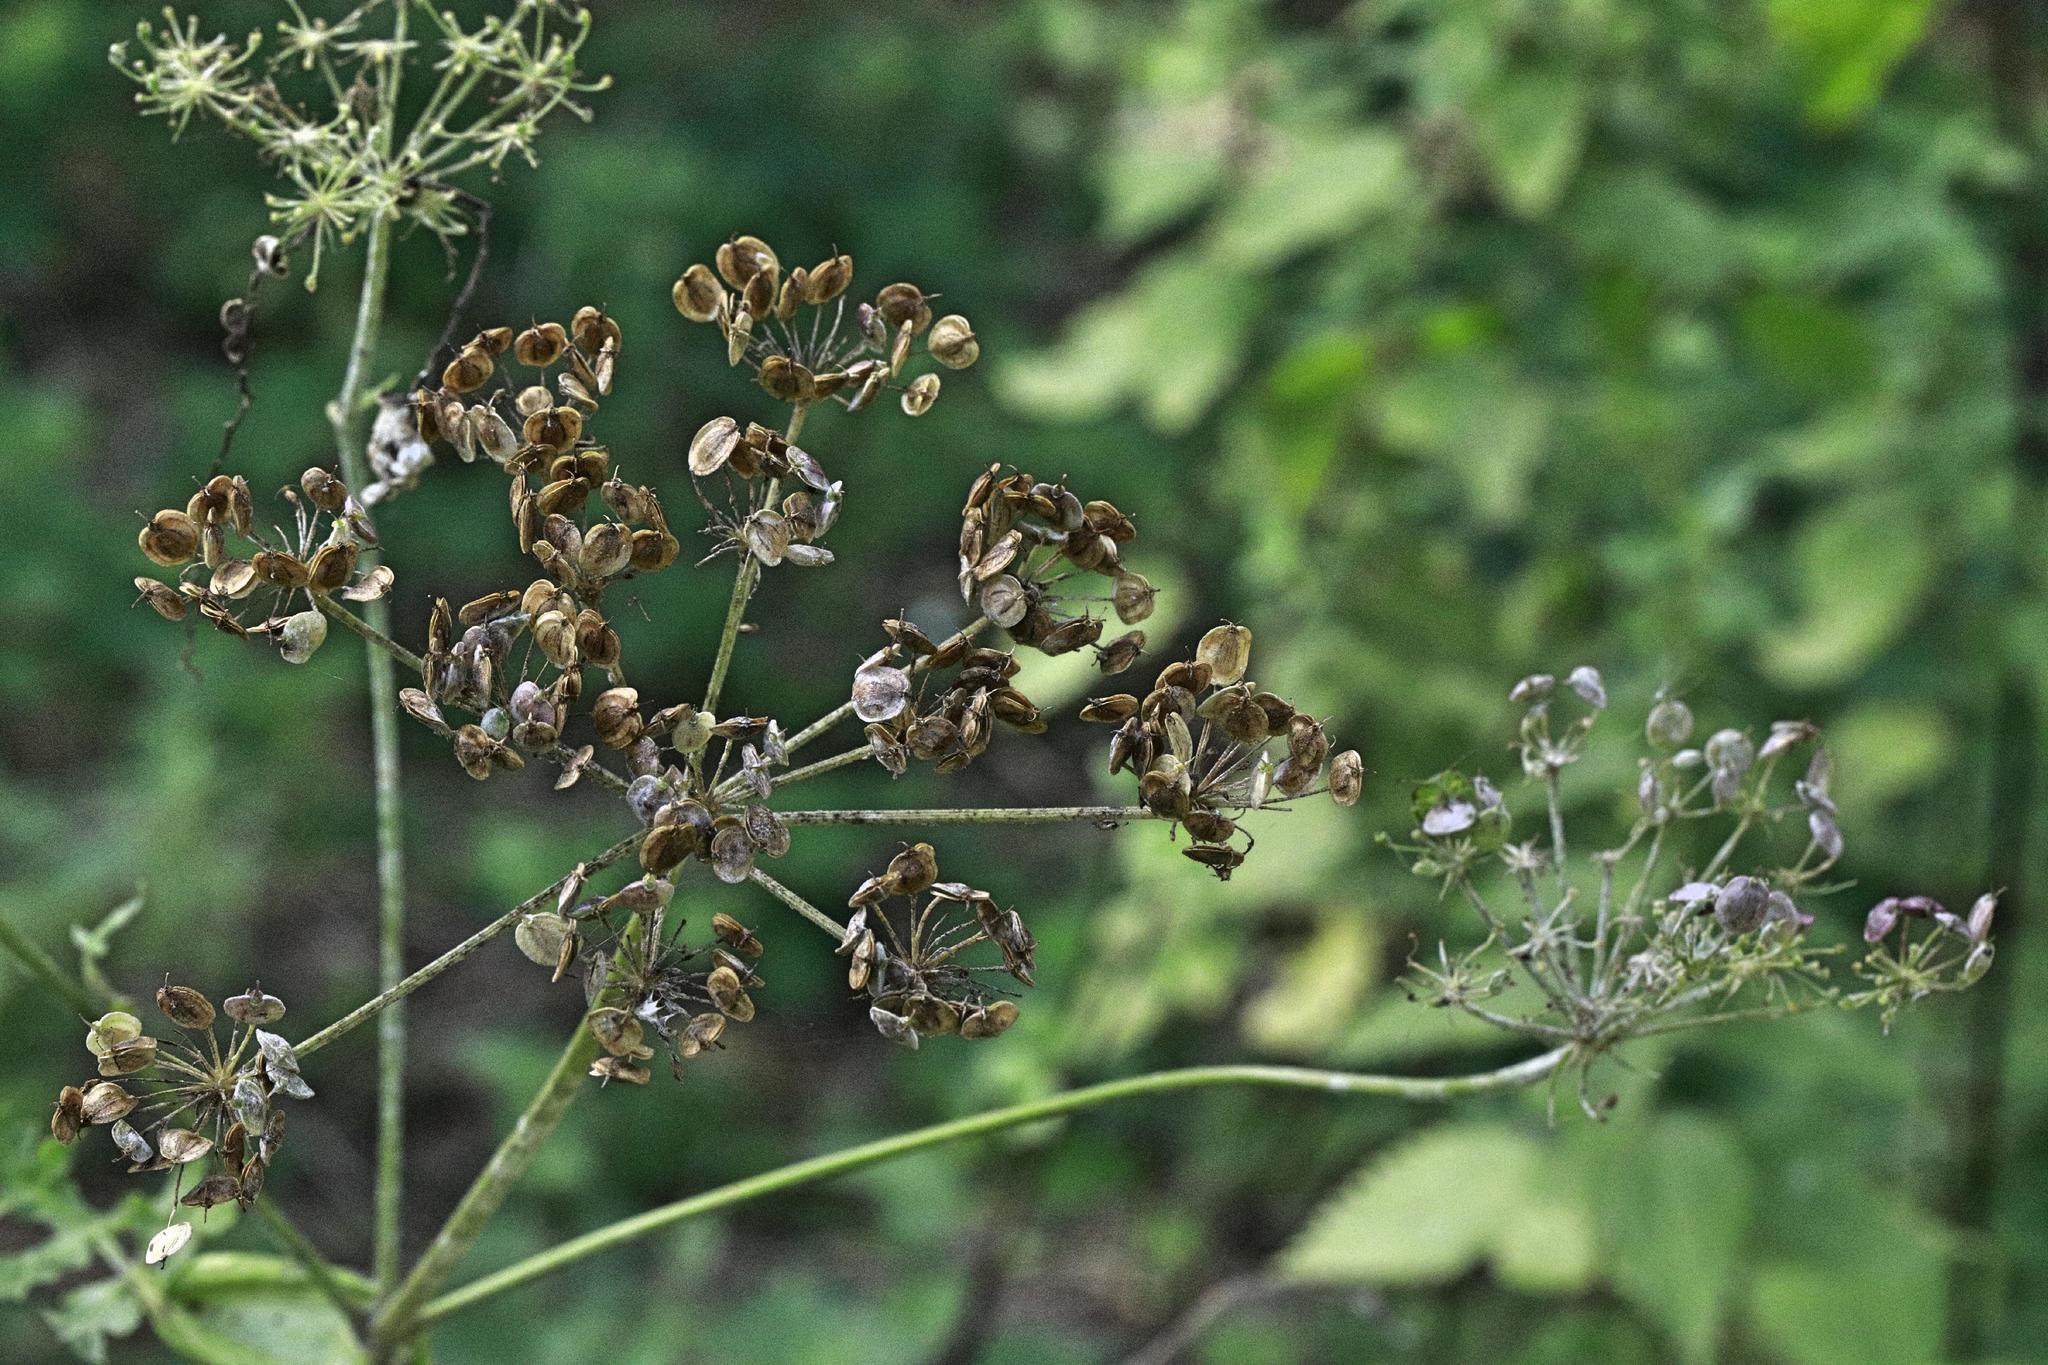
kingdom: Plantae
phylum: Tracheophyta
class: Magnoliopsida
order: Apiales
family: Apiaceae
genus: Heracleum
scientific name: Heracleum sphondylium
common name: Hogweed
